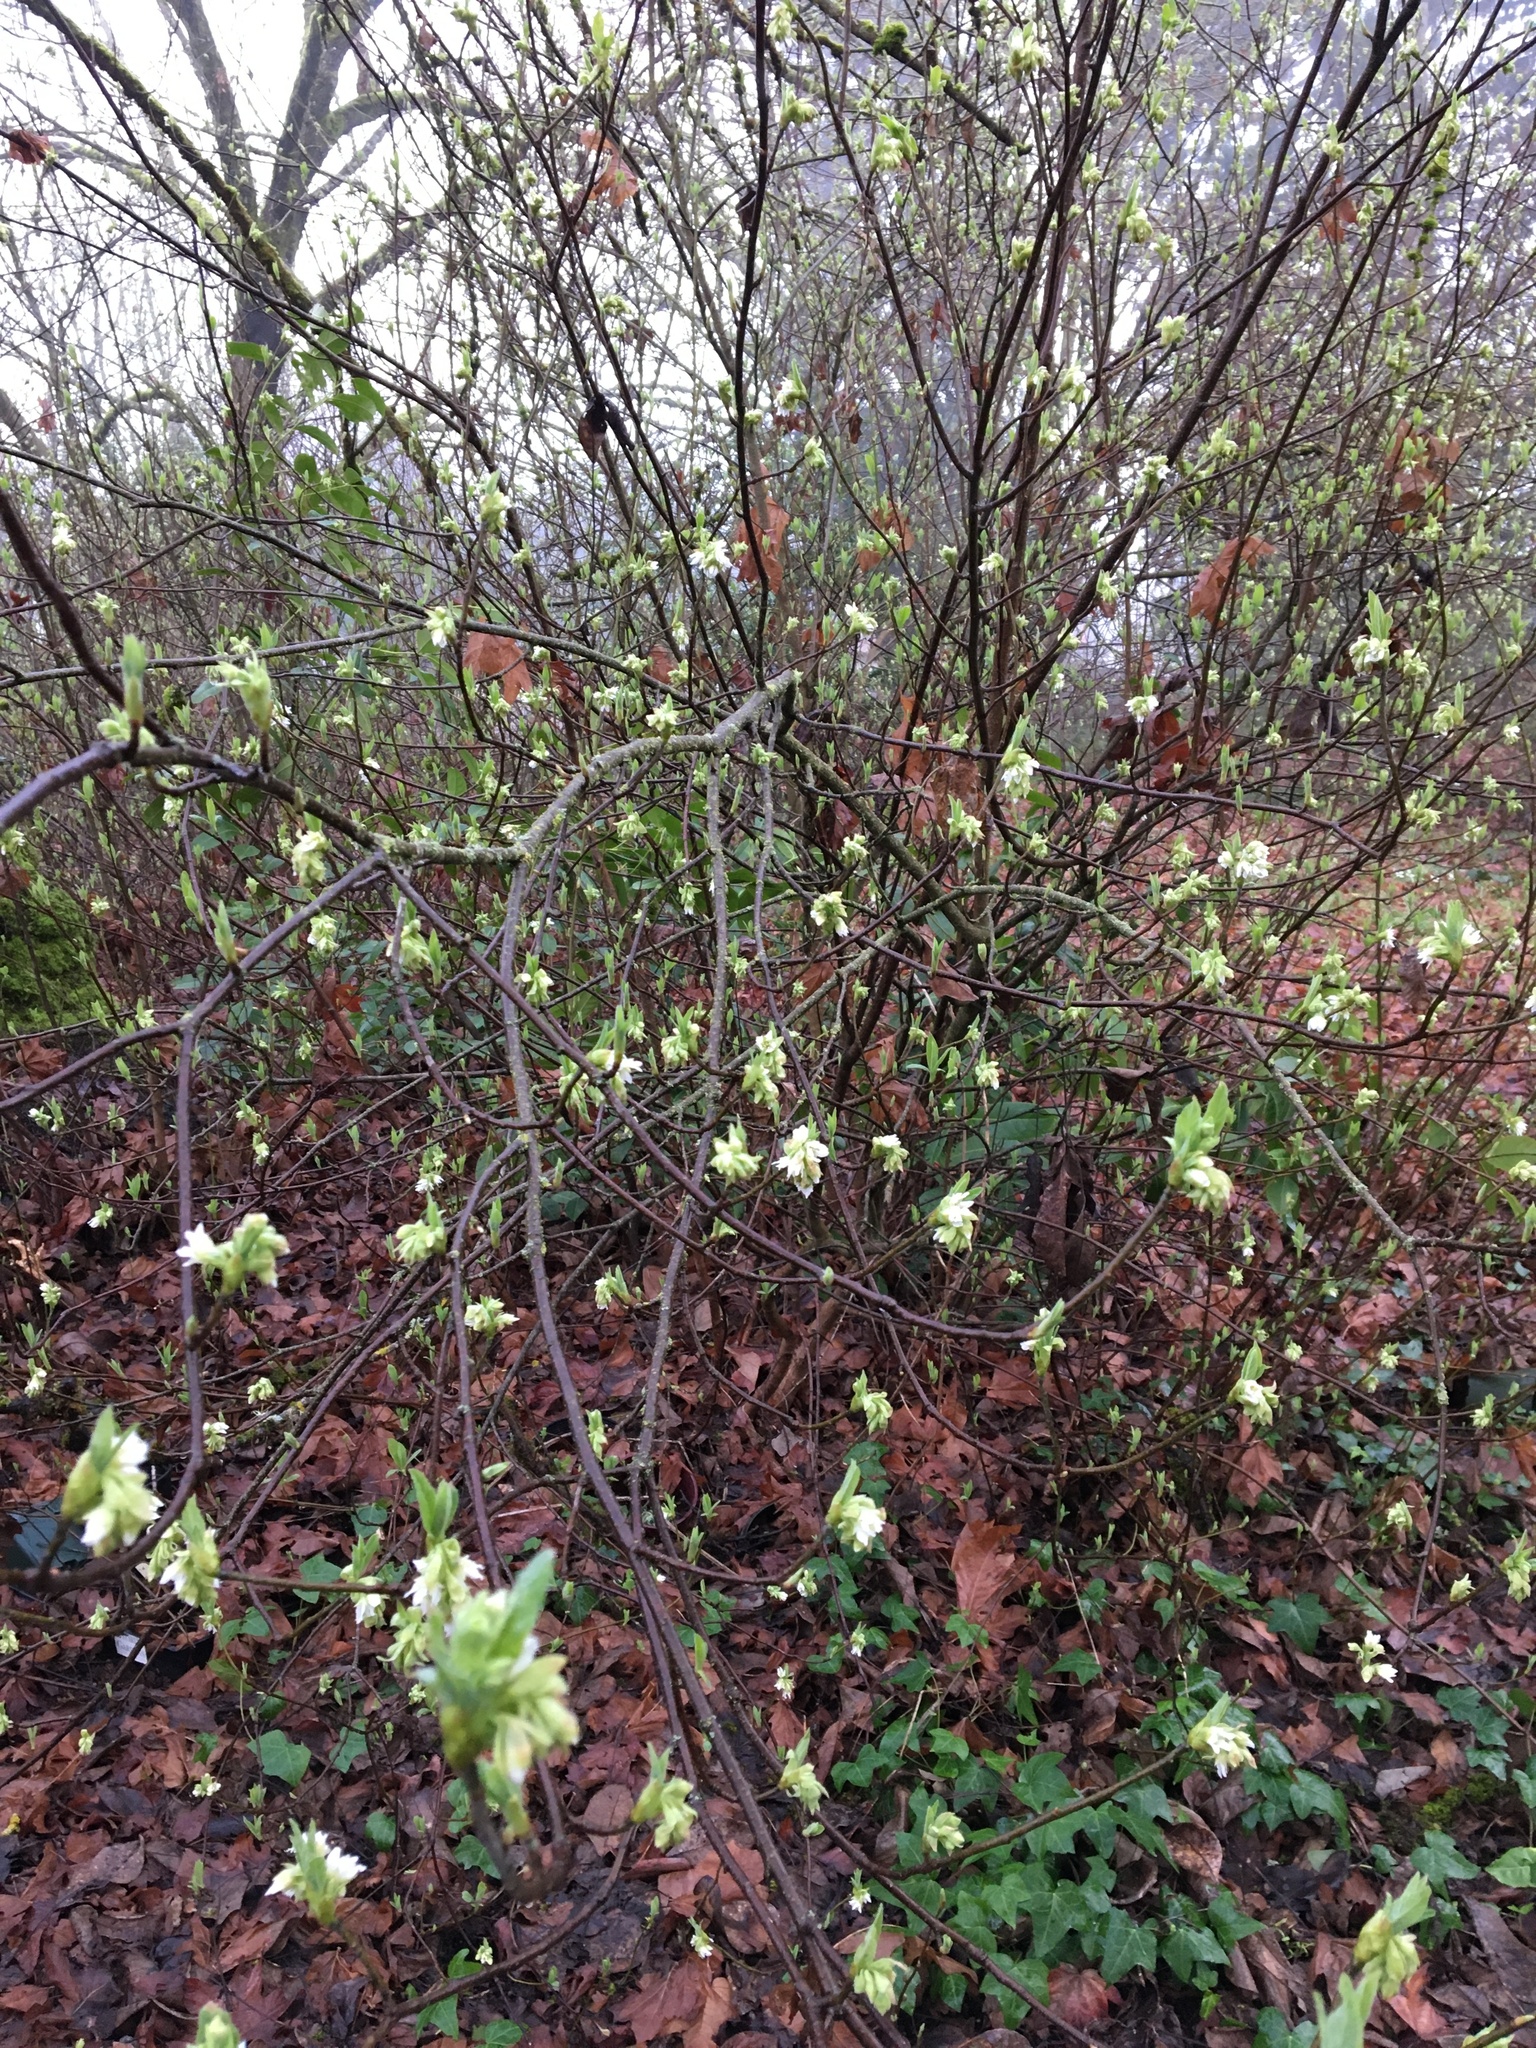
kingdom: Plantae
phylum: Tracheophyta
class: Magnoliopsida
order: Rosales
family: Rosaceae
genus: Oemleria
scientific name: Oemleria cerasiformis
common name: Osoberry
